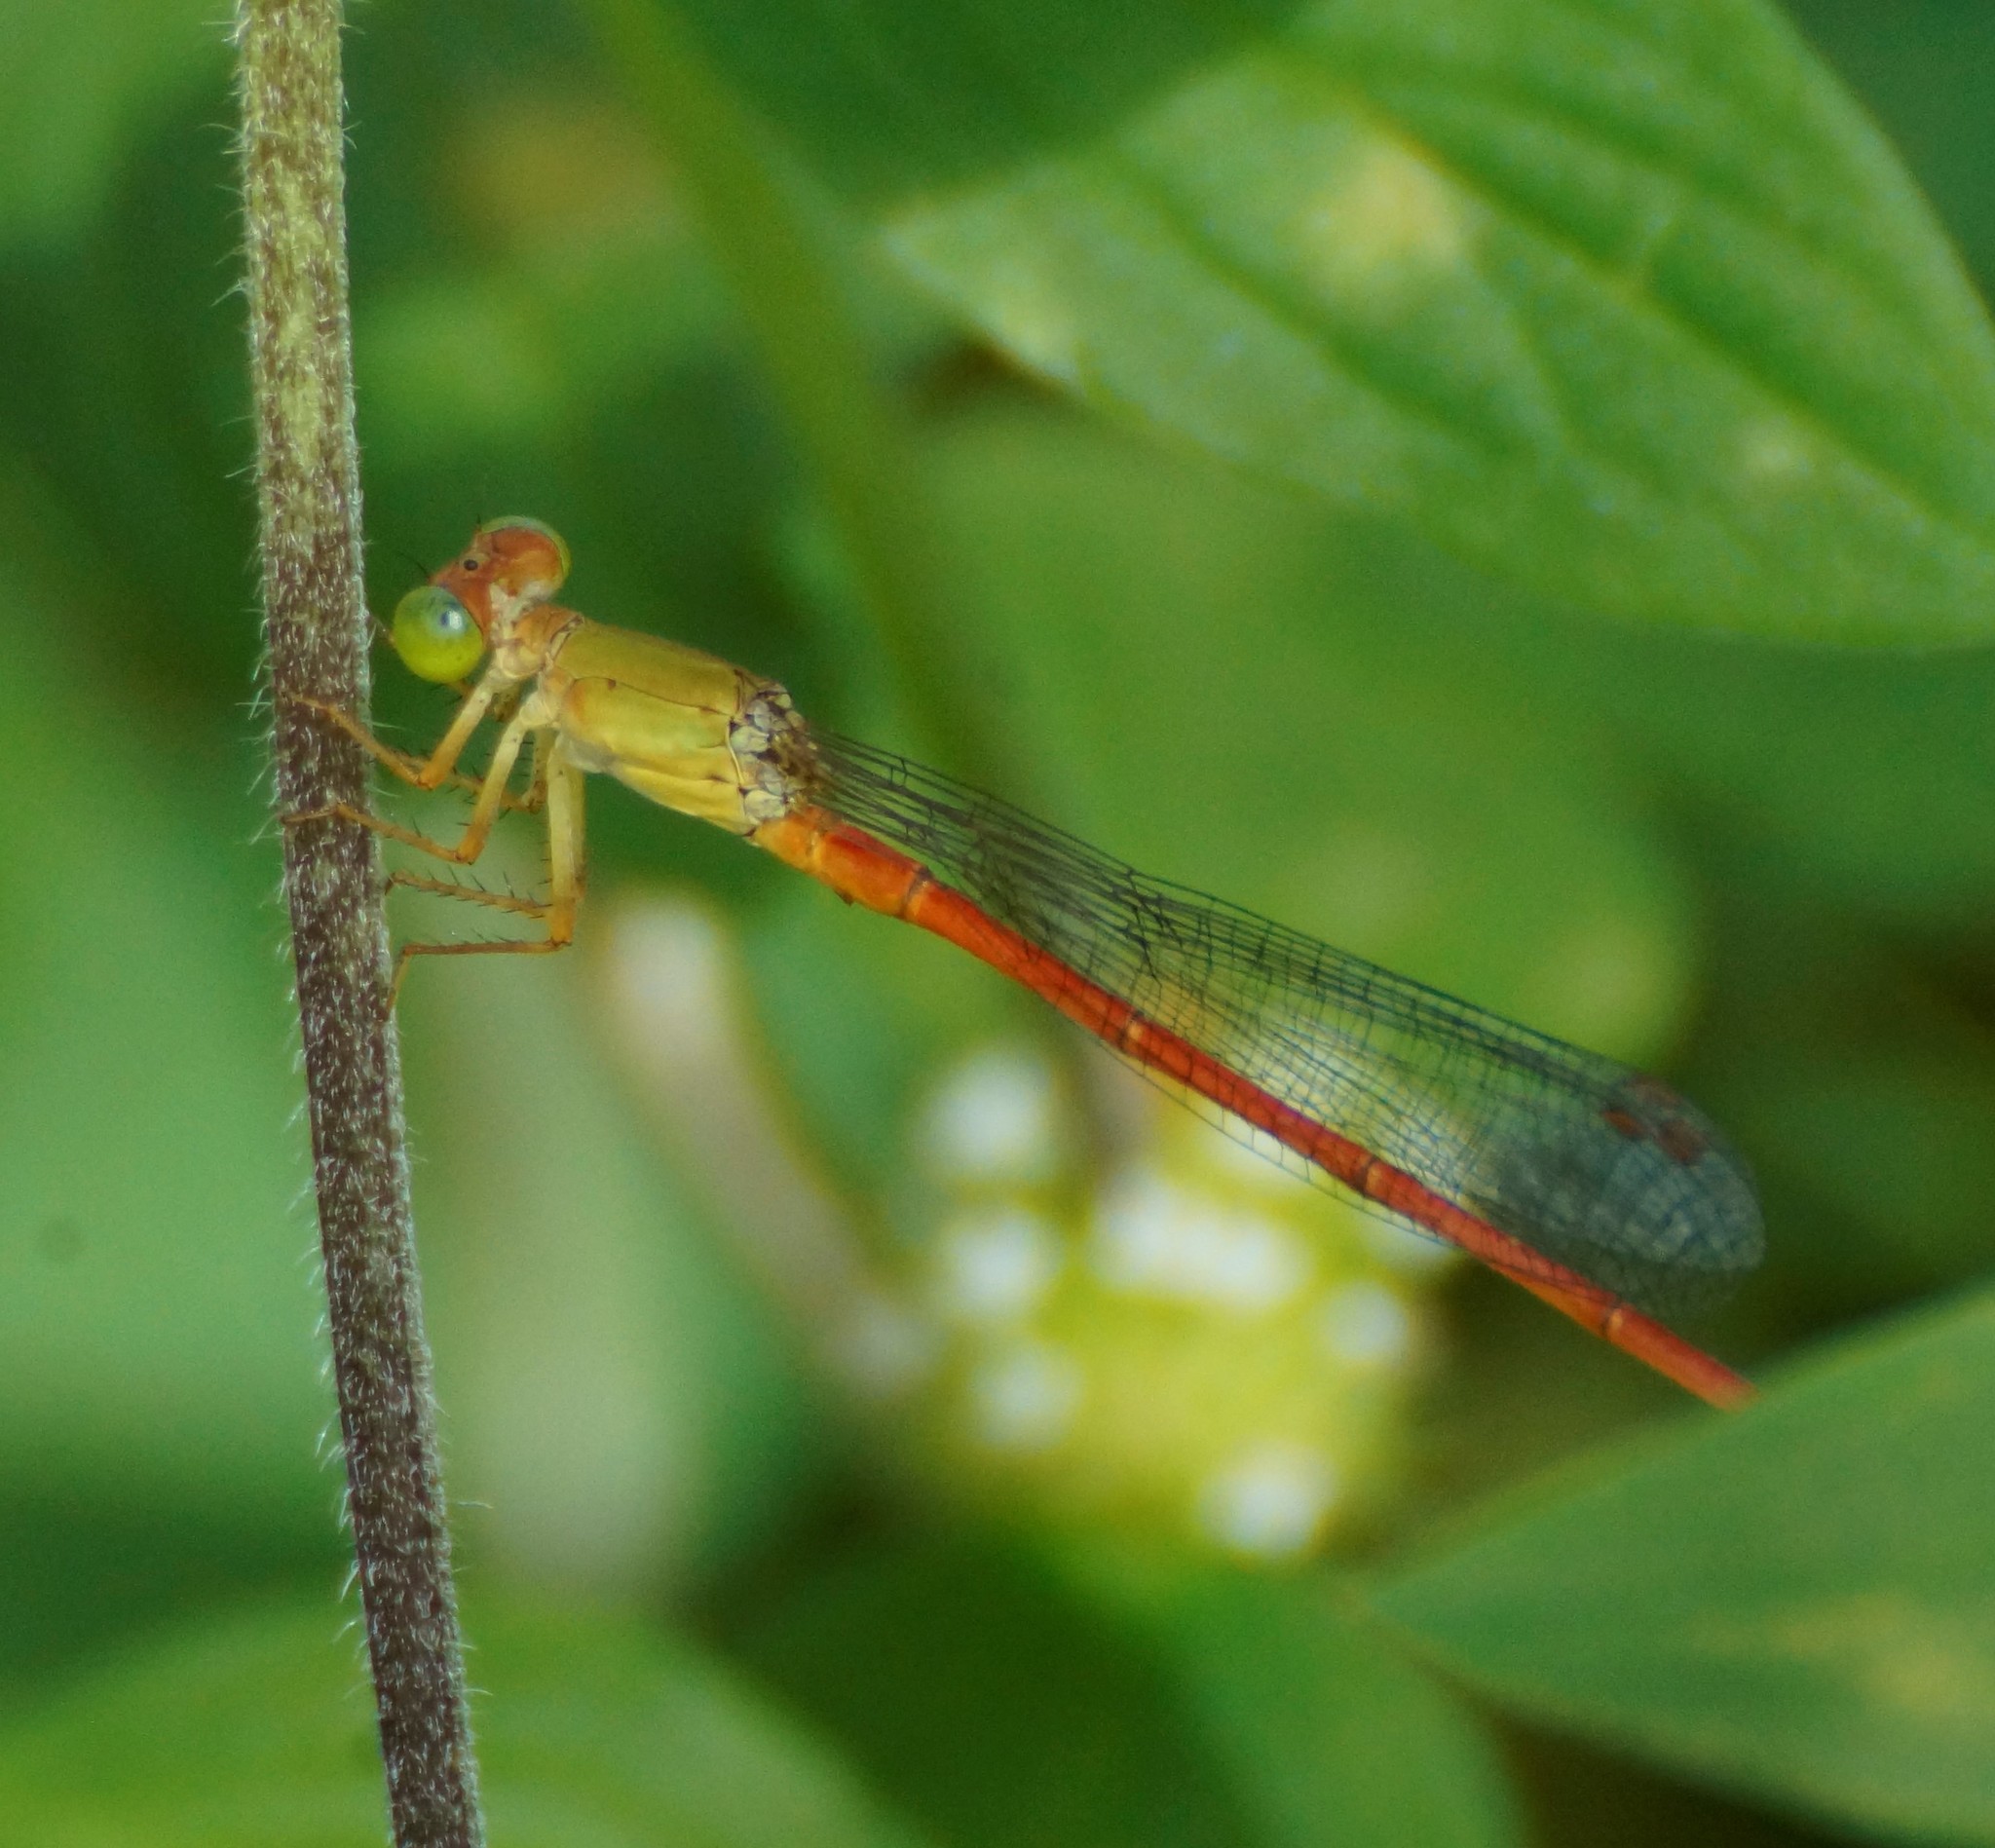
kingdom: Animalia
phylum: Arthropoda
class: Insecta
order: Odonata
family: Coenagrionidae
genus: Ceriagrion
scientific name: Ceriagrion aeruginosum
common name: Redtail
